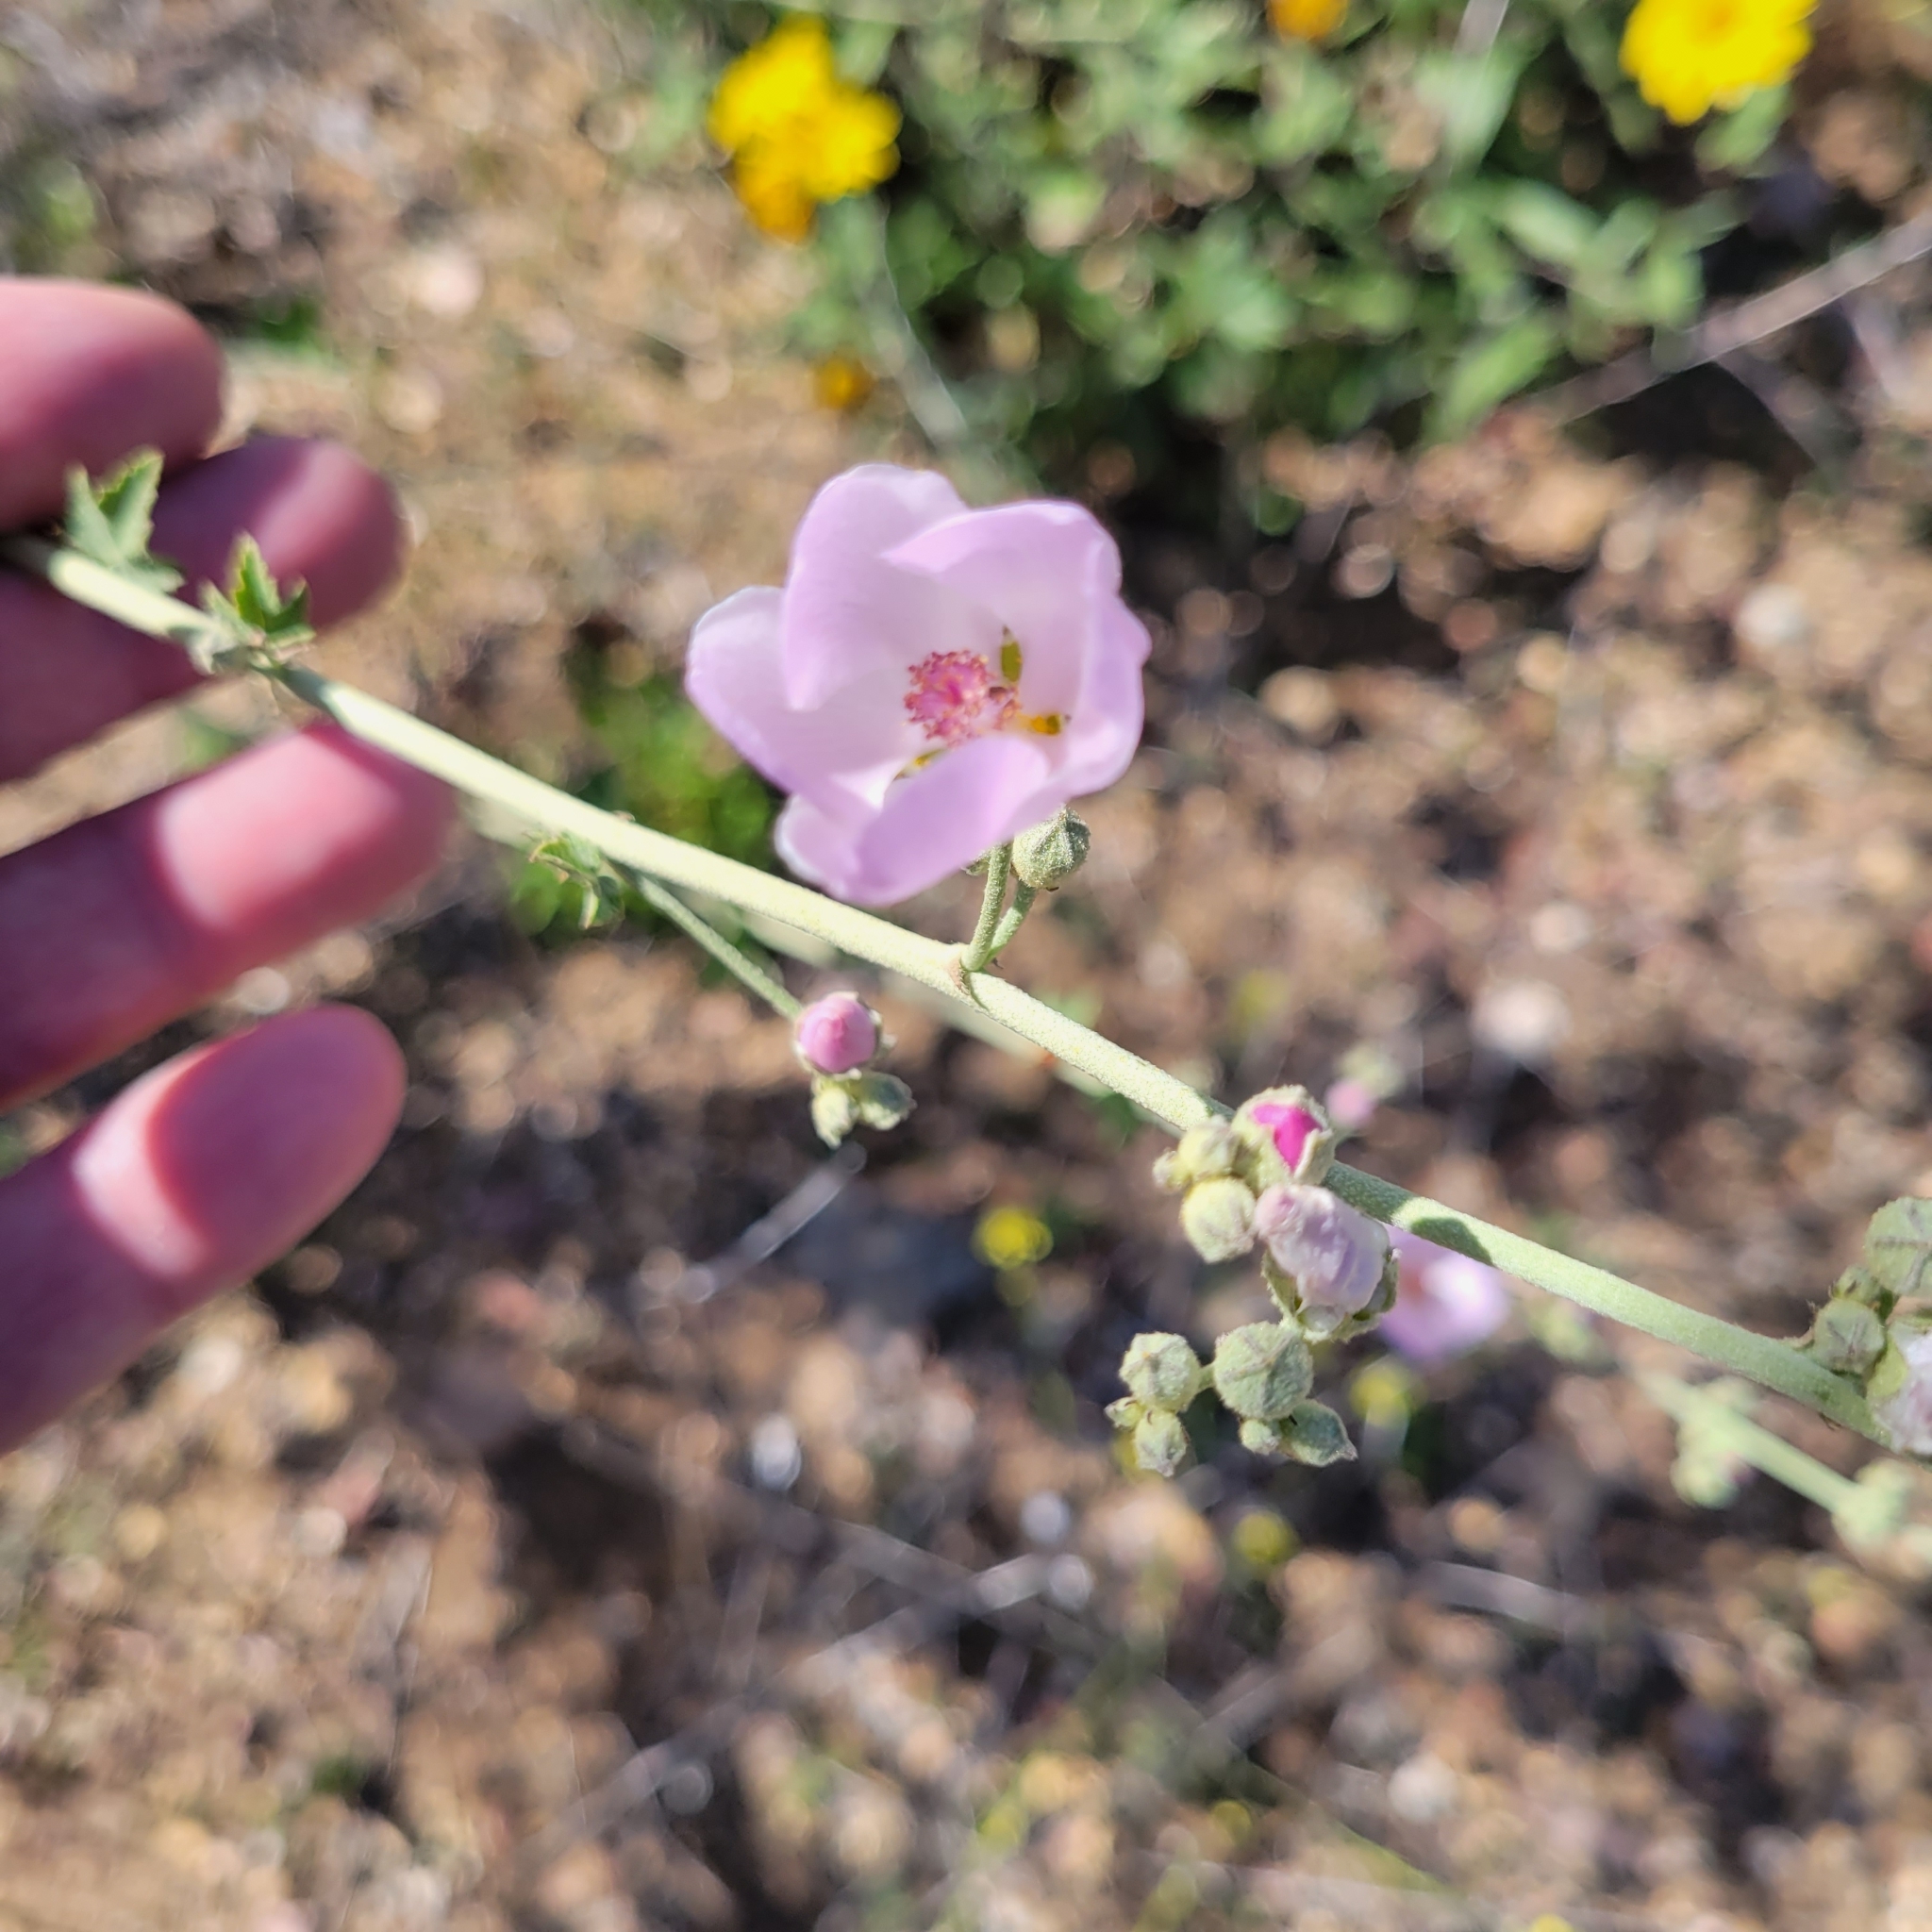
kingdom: Plantae
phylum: Tracheophyta
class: Magnoliopsida
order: Malvales
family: Malvaceae
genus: Malacothamnus
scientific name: Malacothamnus fasciculatus
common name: Sant cruz island bush-mallow
